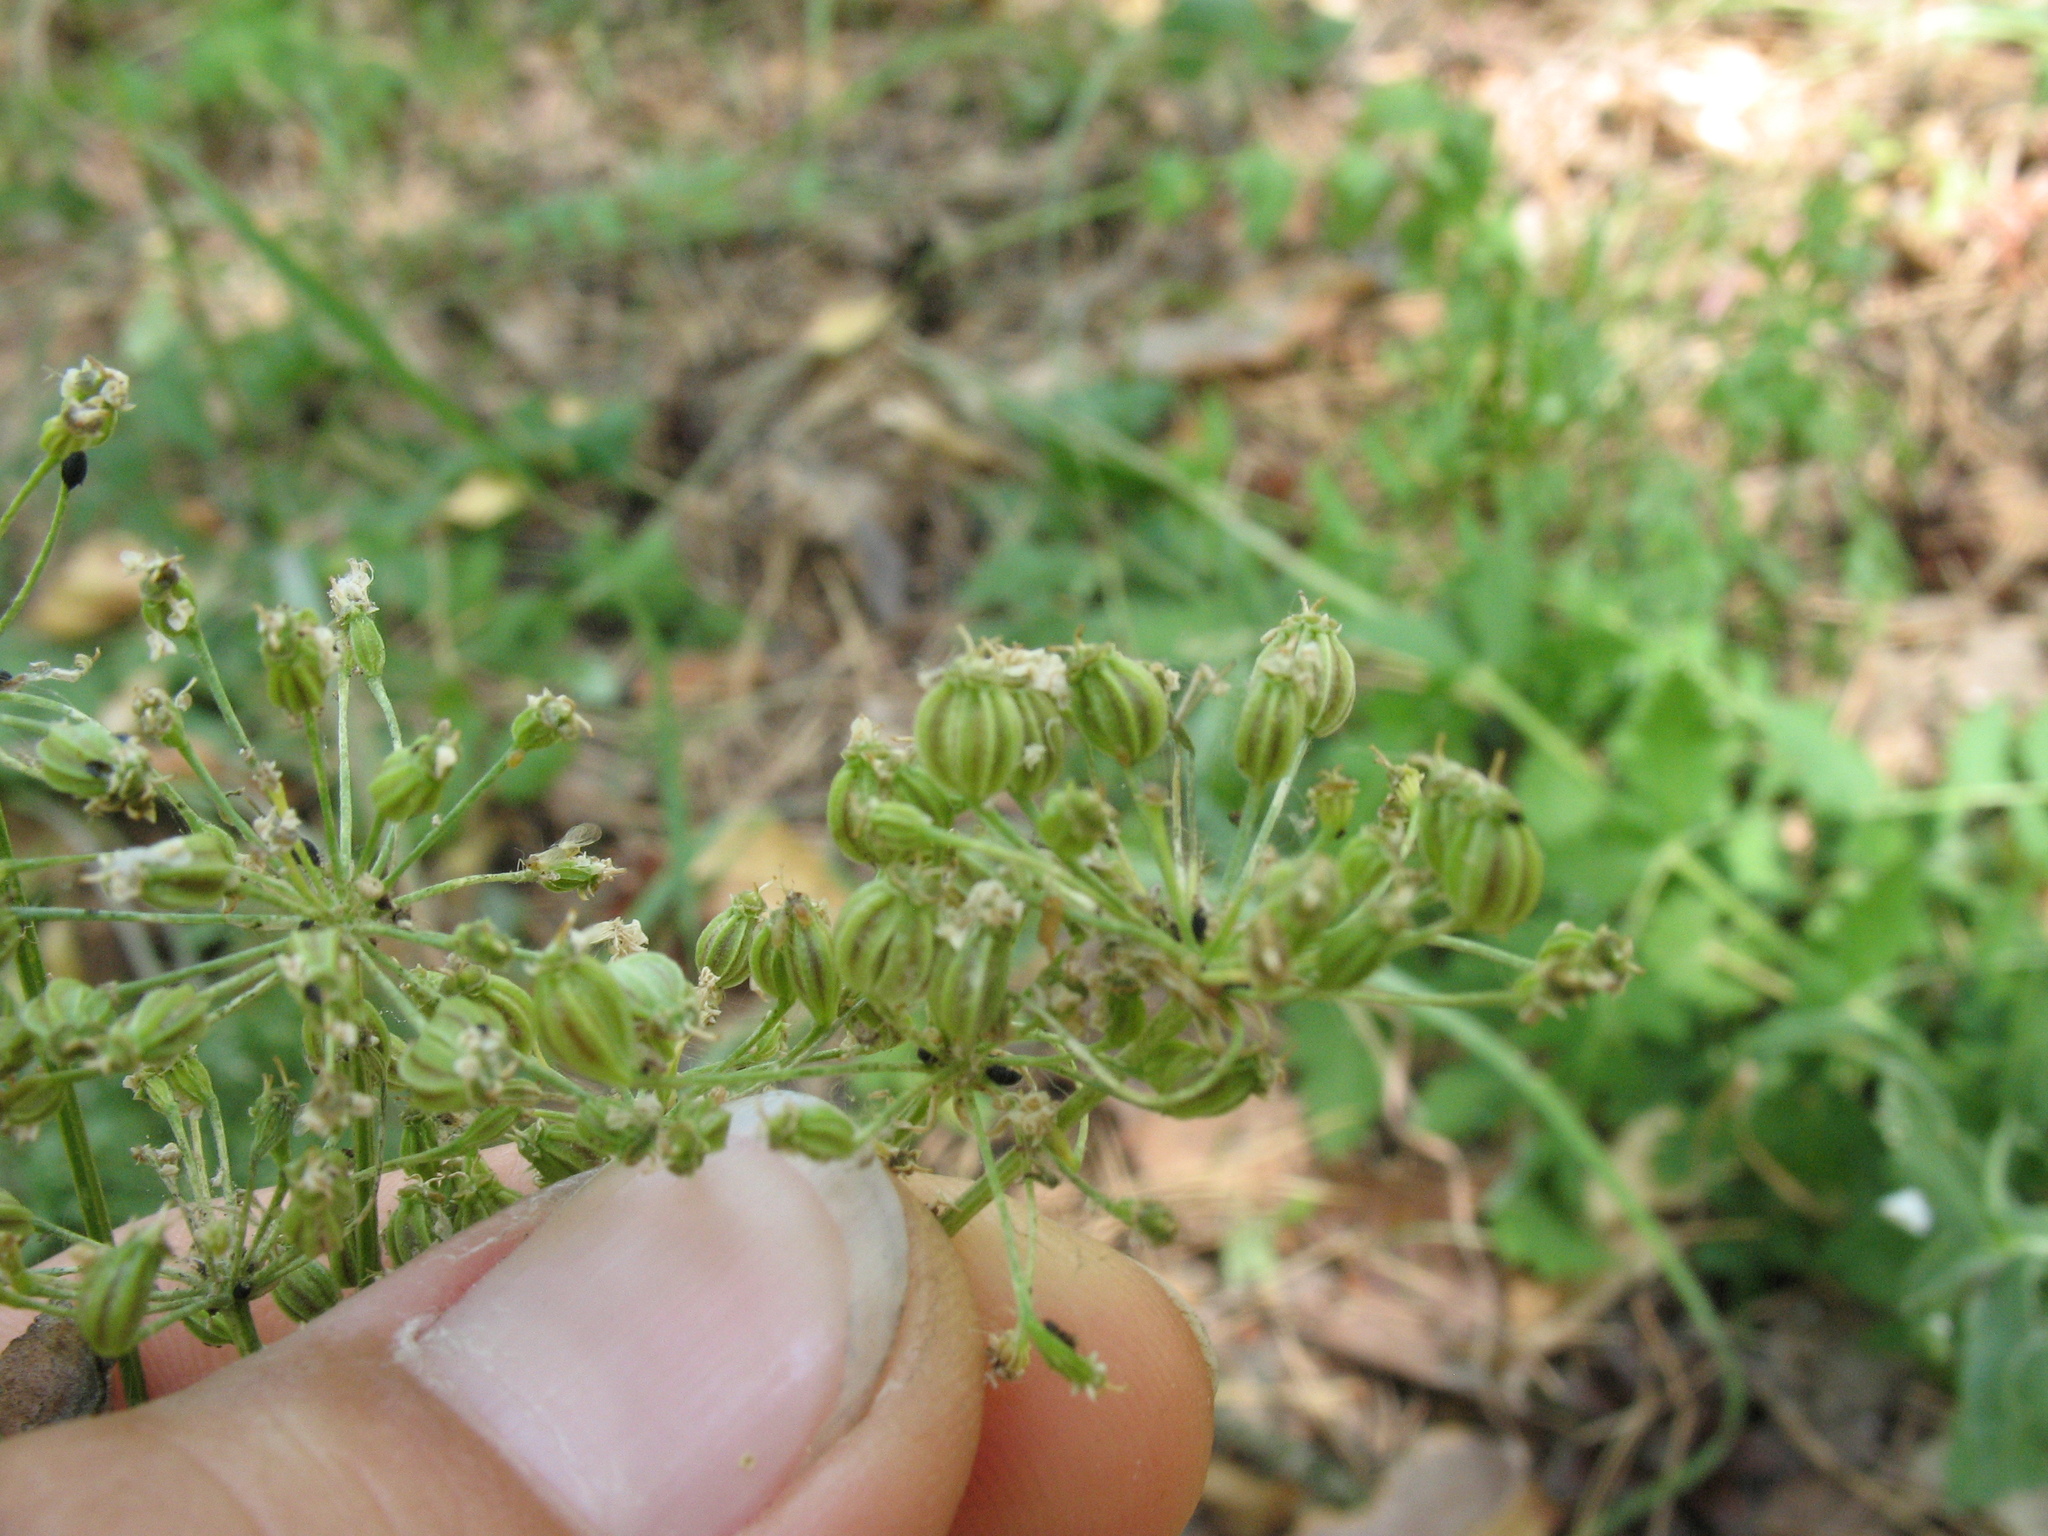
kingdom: Plantae
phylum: Tracheophyta
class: Magnoliopsida
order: Apiales
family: Apiaceae
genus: Aulacospermum
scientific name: Aulacospermum multifidum
